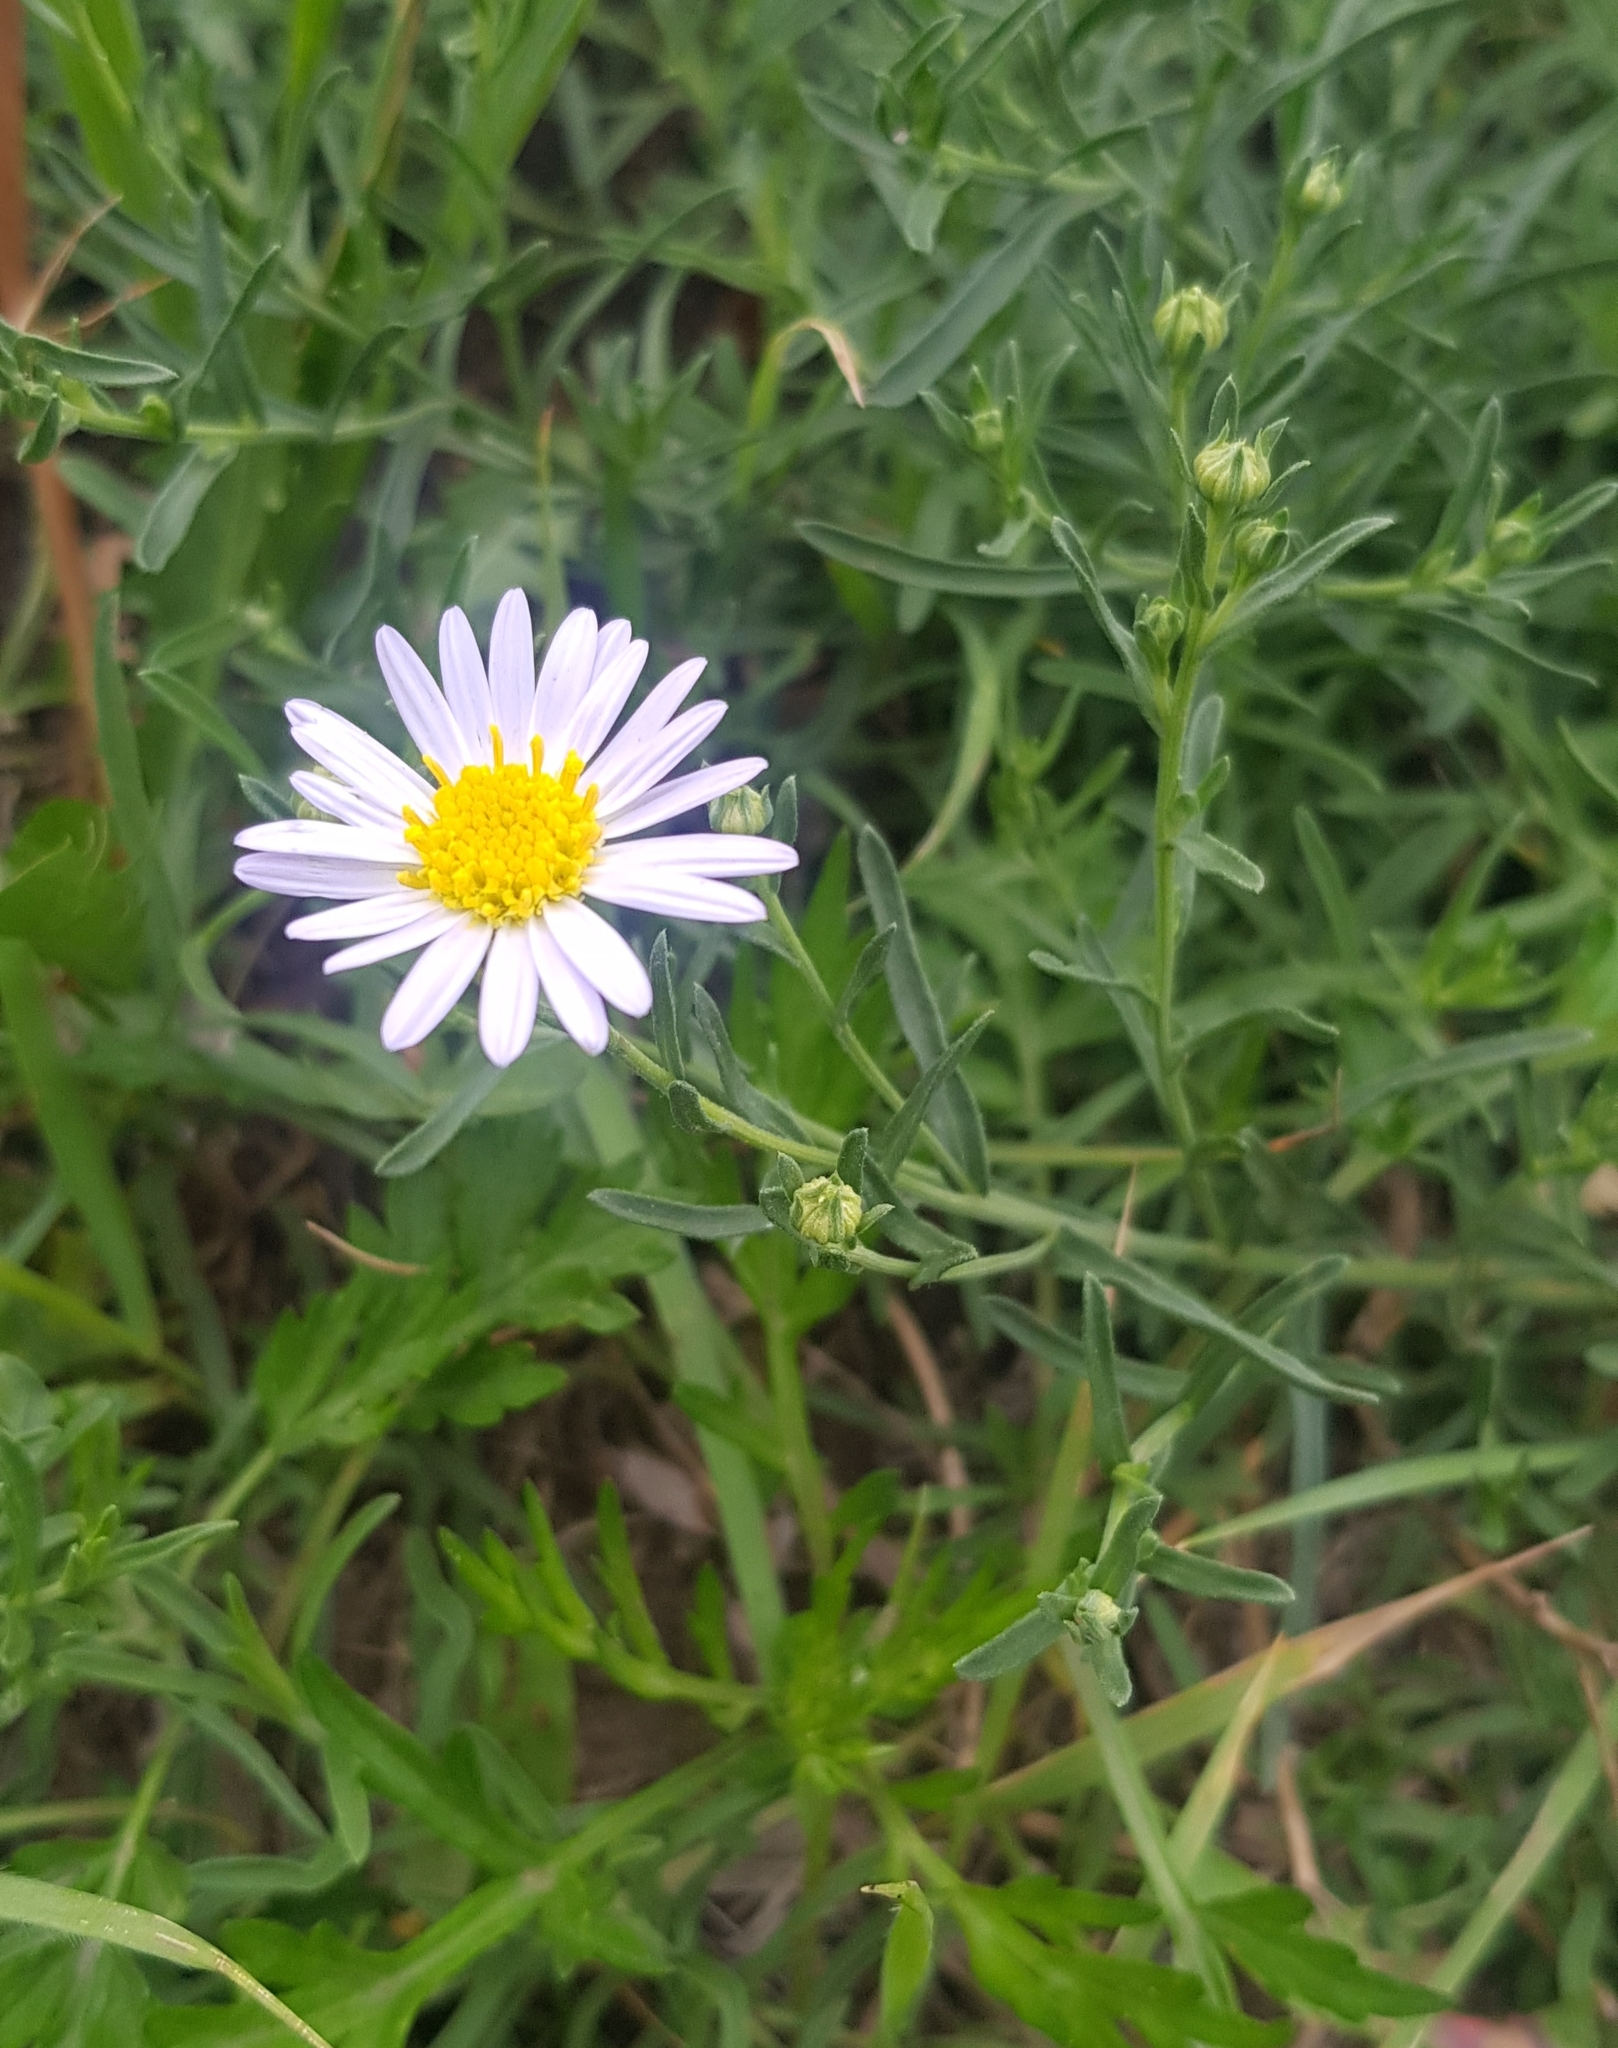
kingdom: Plantae
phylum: Tracheophyta
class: Magnoliopsida
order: Asterales
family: Asteraceae
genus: Heteropappus
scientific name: Heteropappus altaicus
